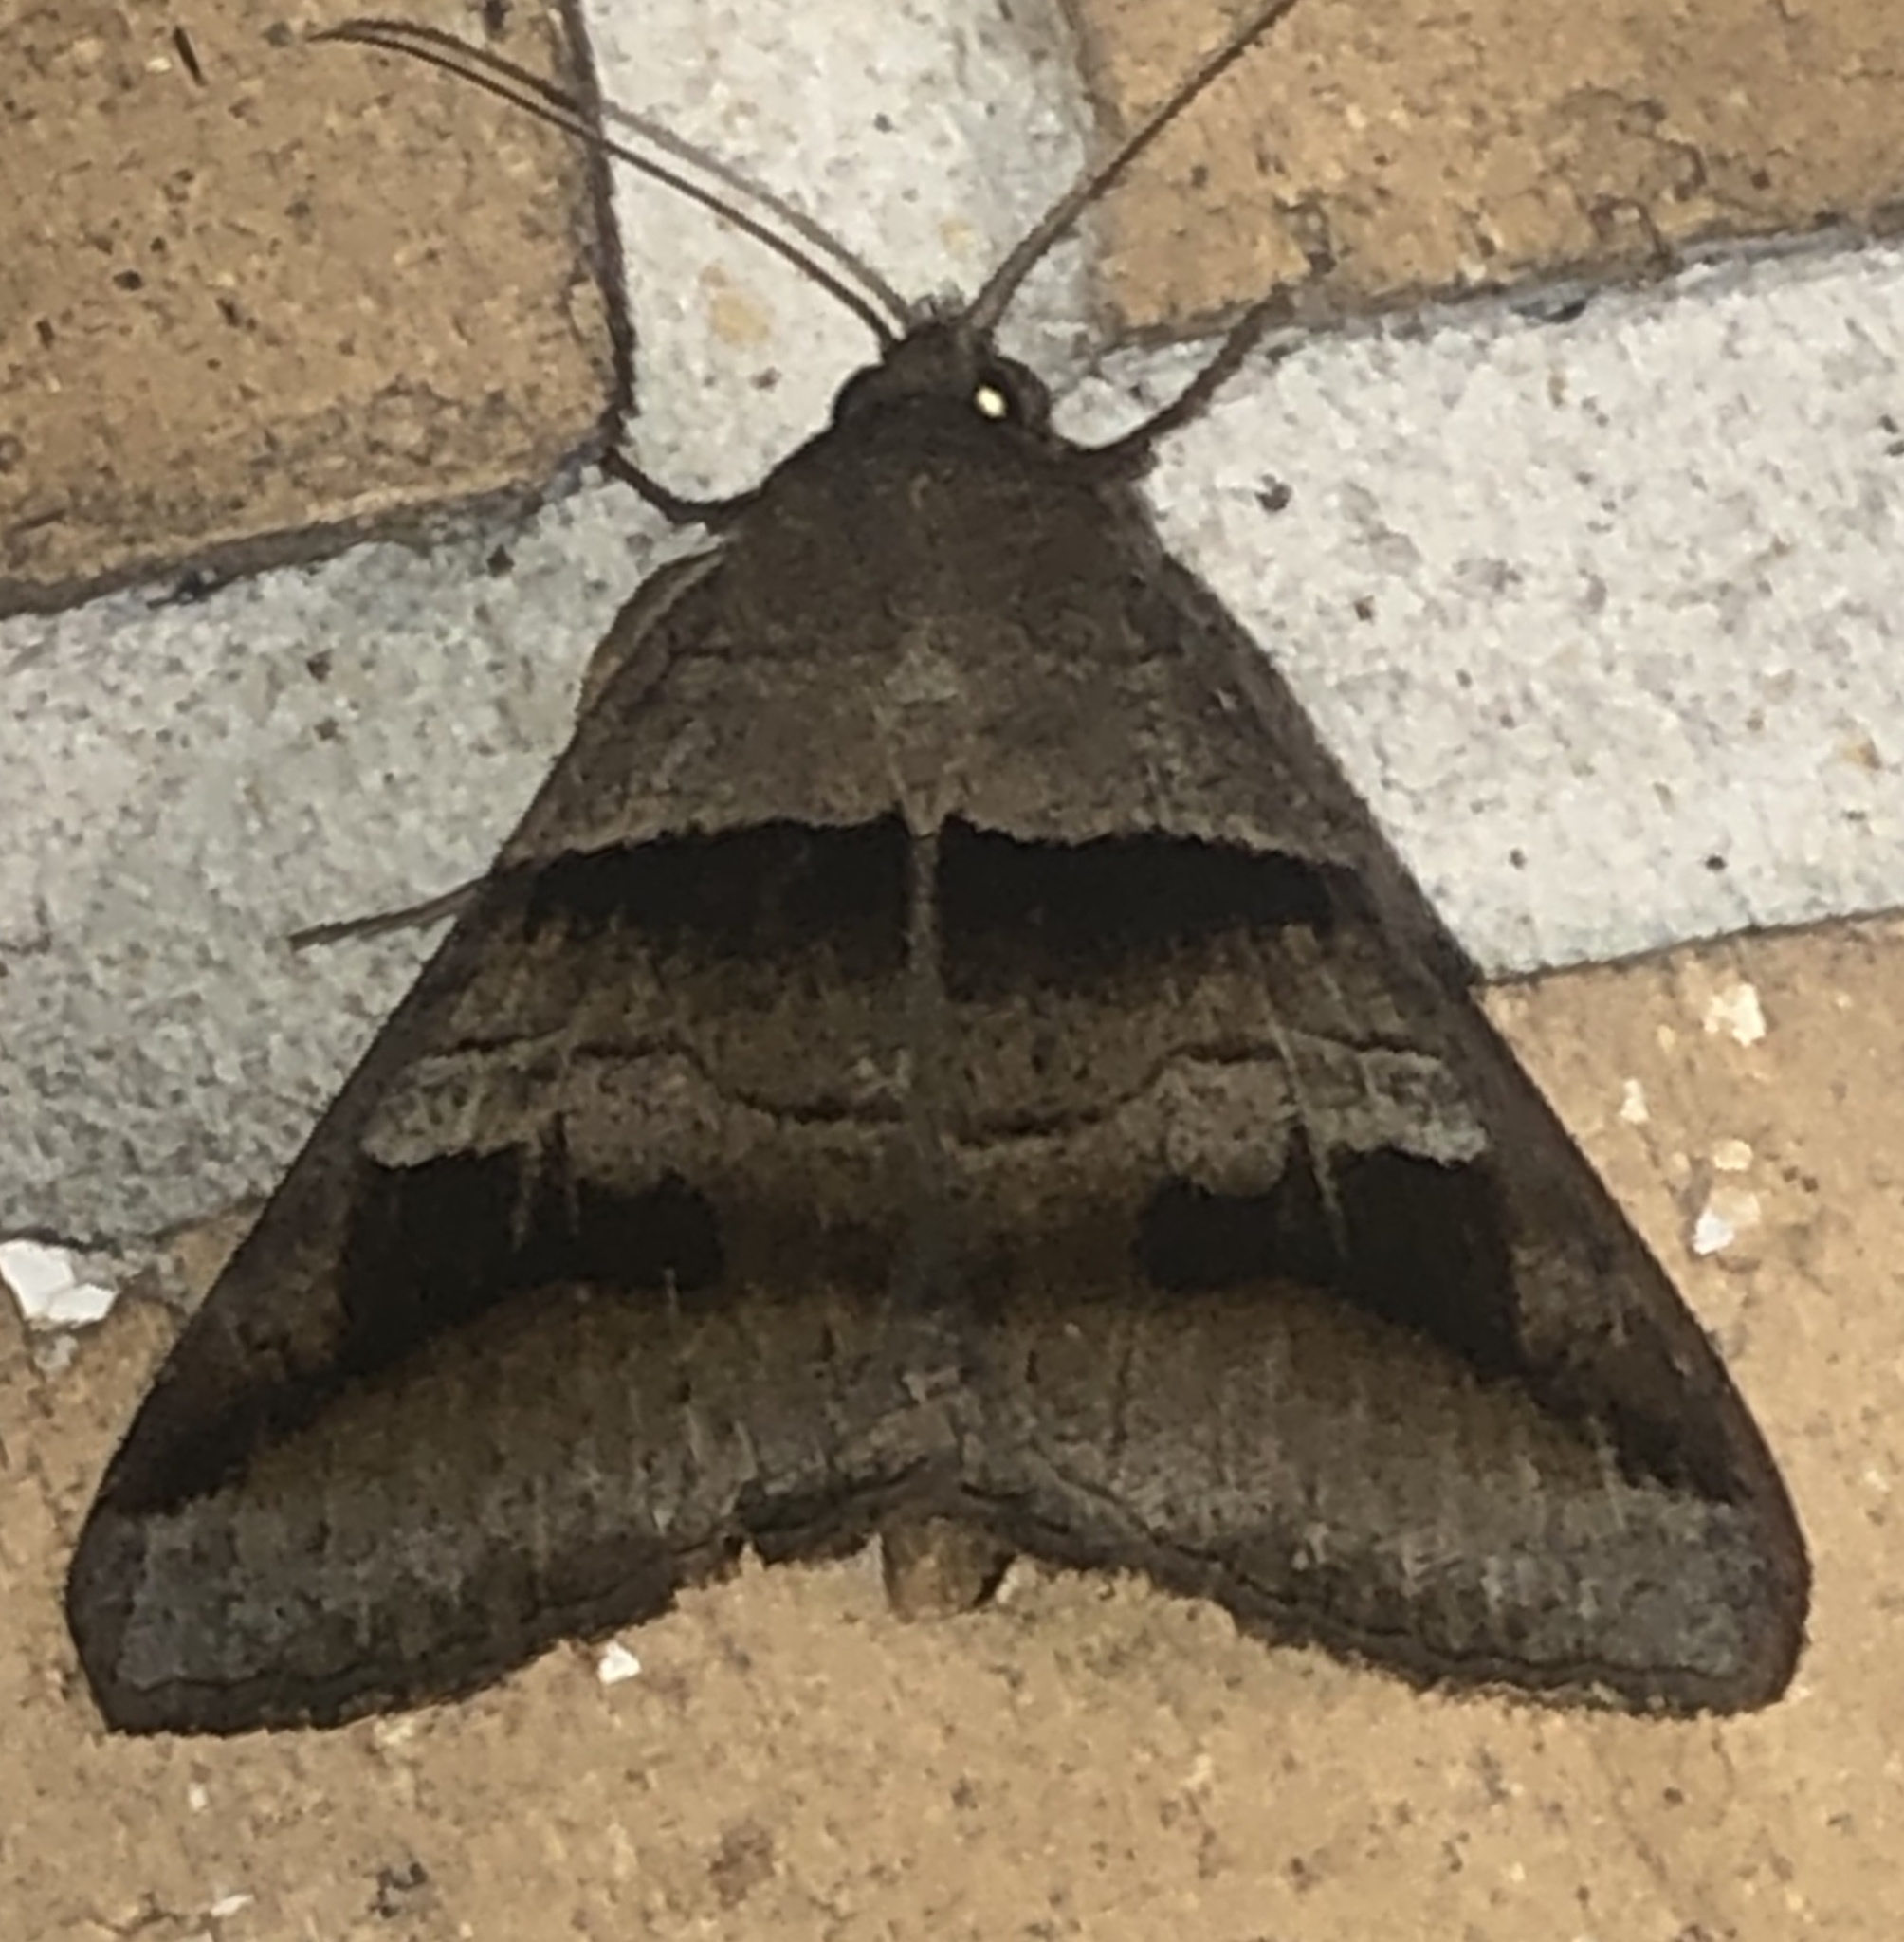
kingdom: Animalia
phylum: Arthropoda
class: Insecta
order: Lepidoptera
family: Erebidae
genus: Mocis
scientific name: Mocis alterna
